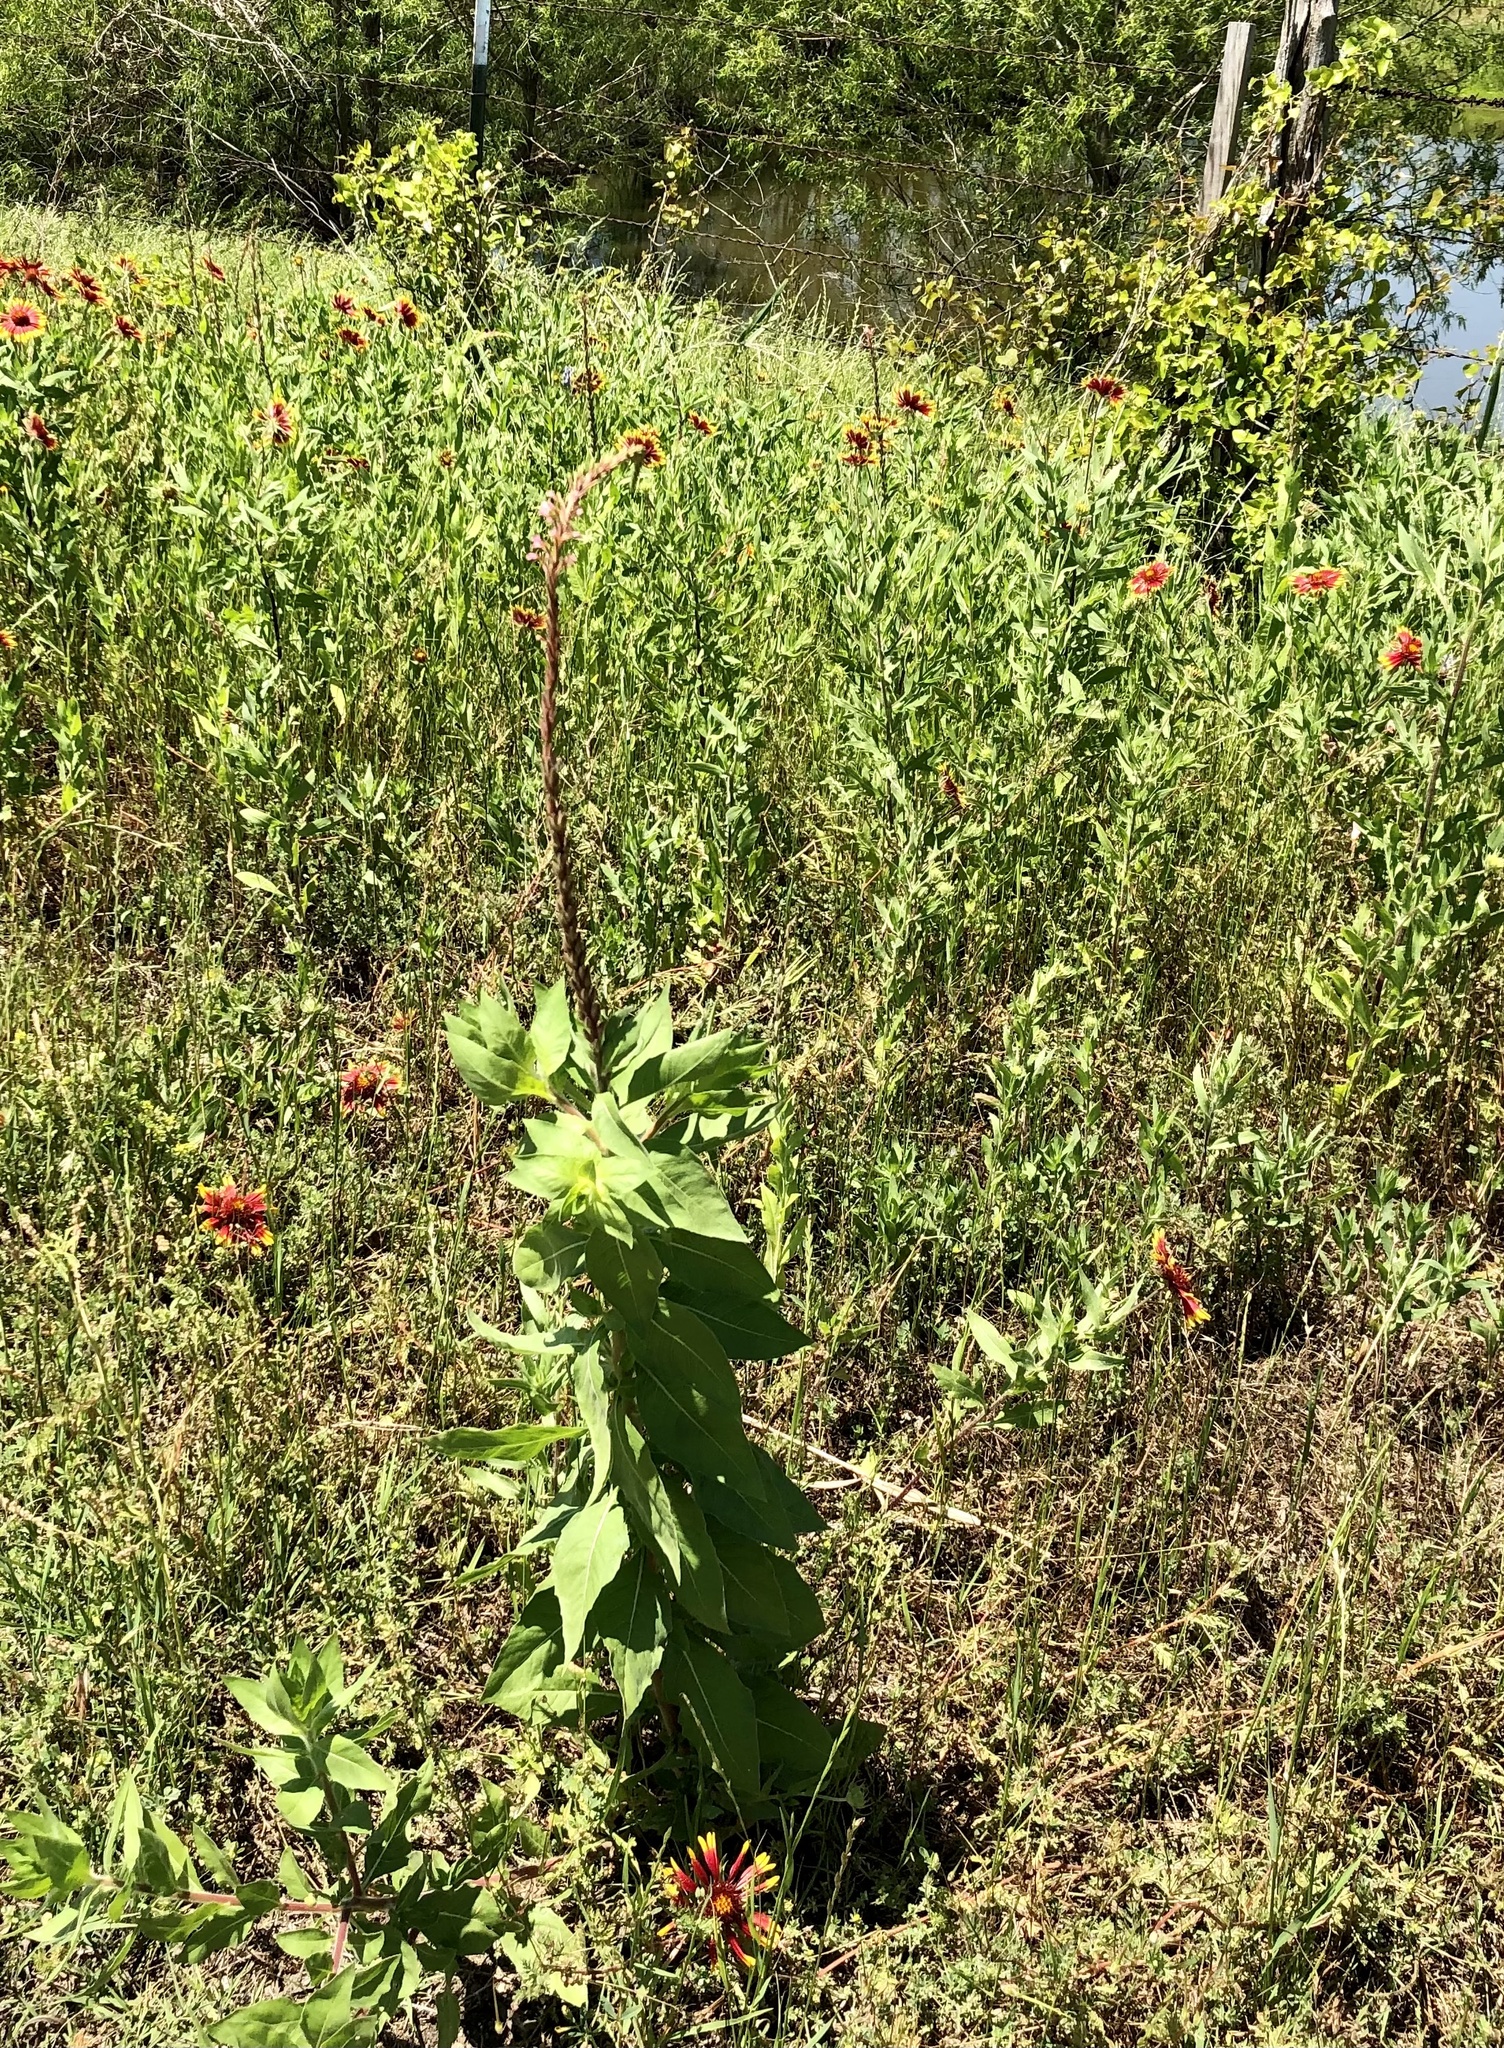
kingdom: Plantae
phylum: Tracheophyta
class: Magnoliopsida
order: Myrtales
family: Onagraceae
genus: Oenothera
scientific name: Oenothera curtiflora
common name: Velvetweed
